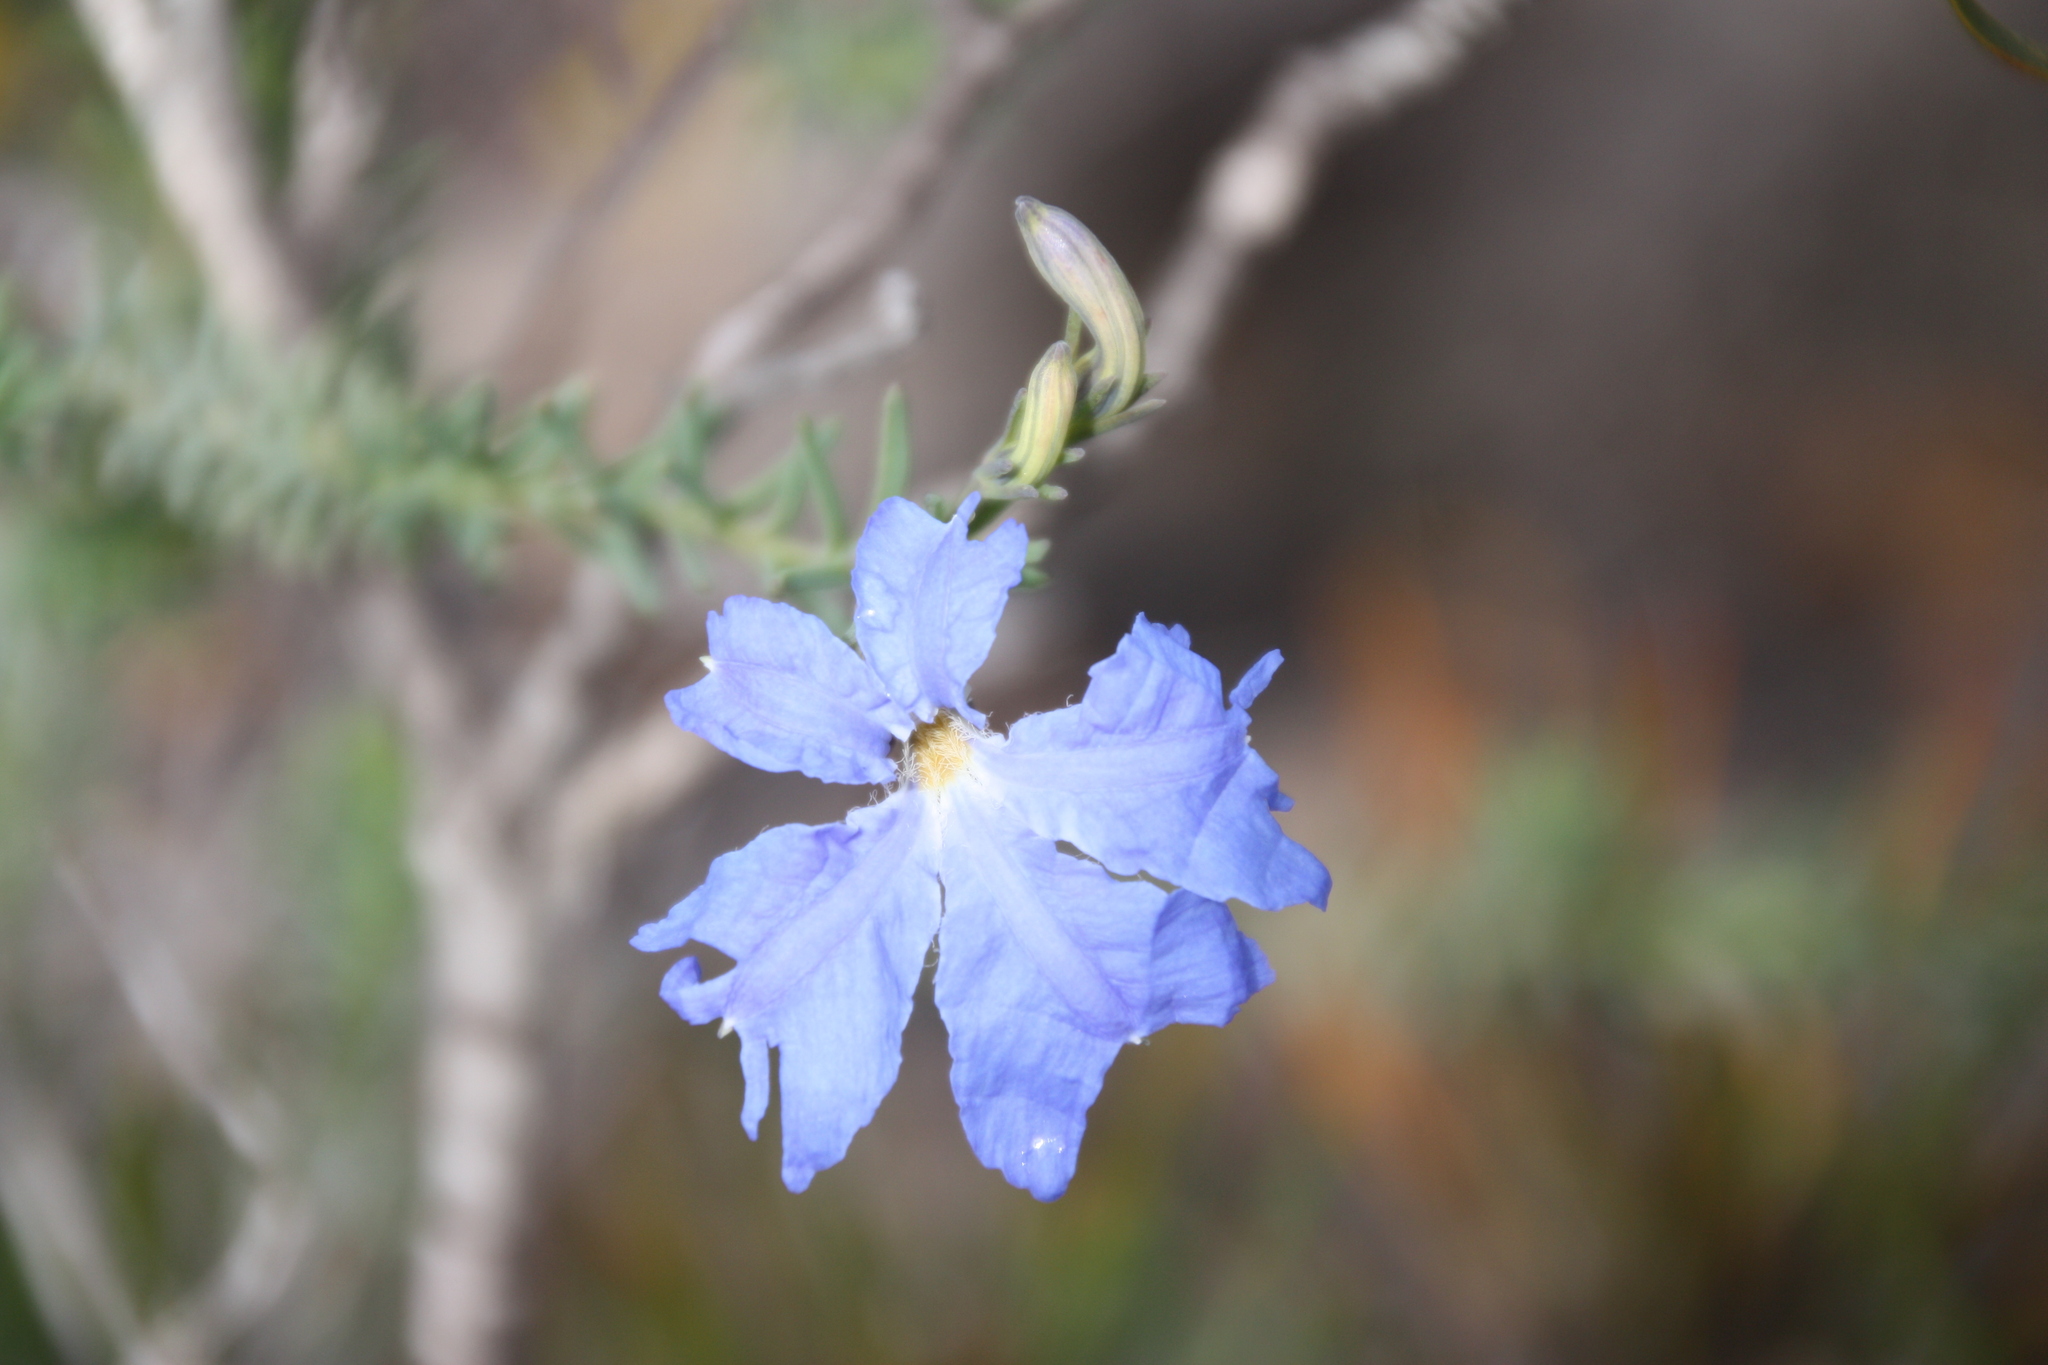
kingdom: Plantae
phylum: Tracheophyta
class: Magnoliopsida
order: Asterales
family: Goodeniaceae
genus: Lechenaultia
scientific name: Lechenaultia biloba
